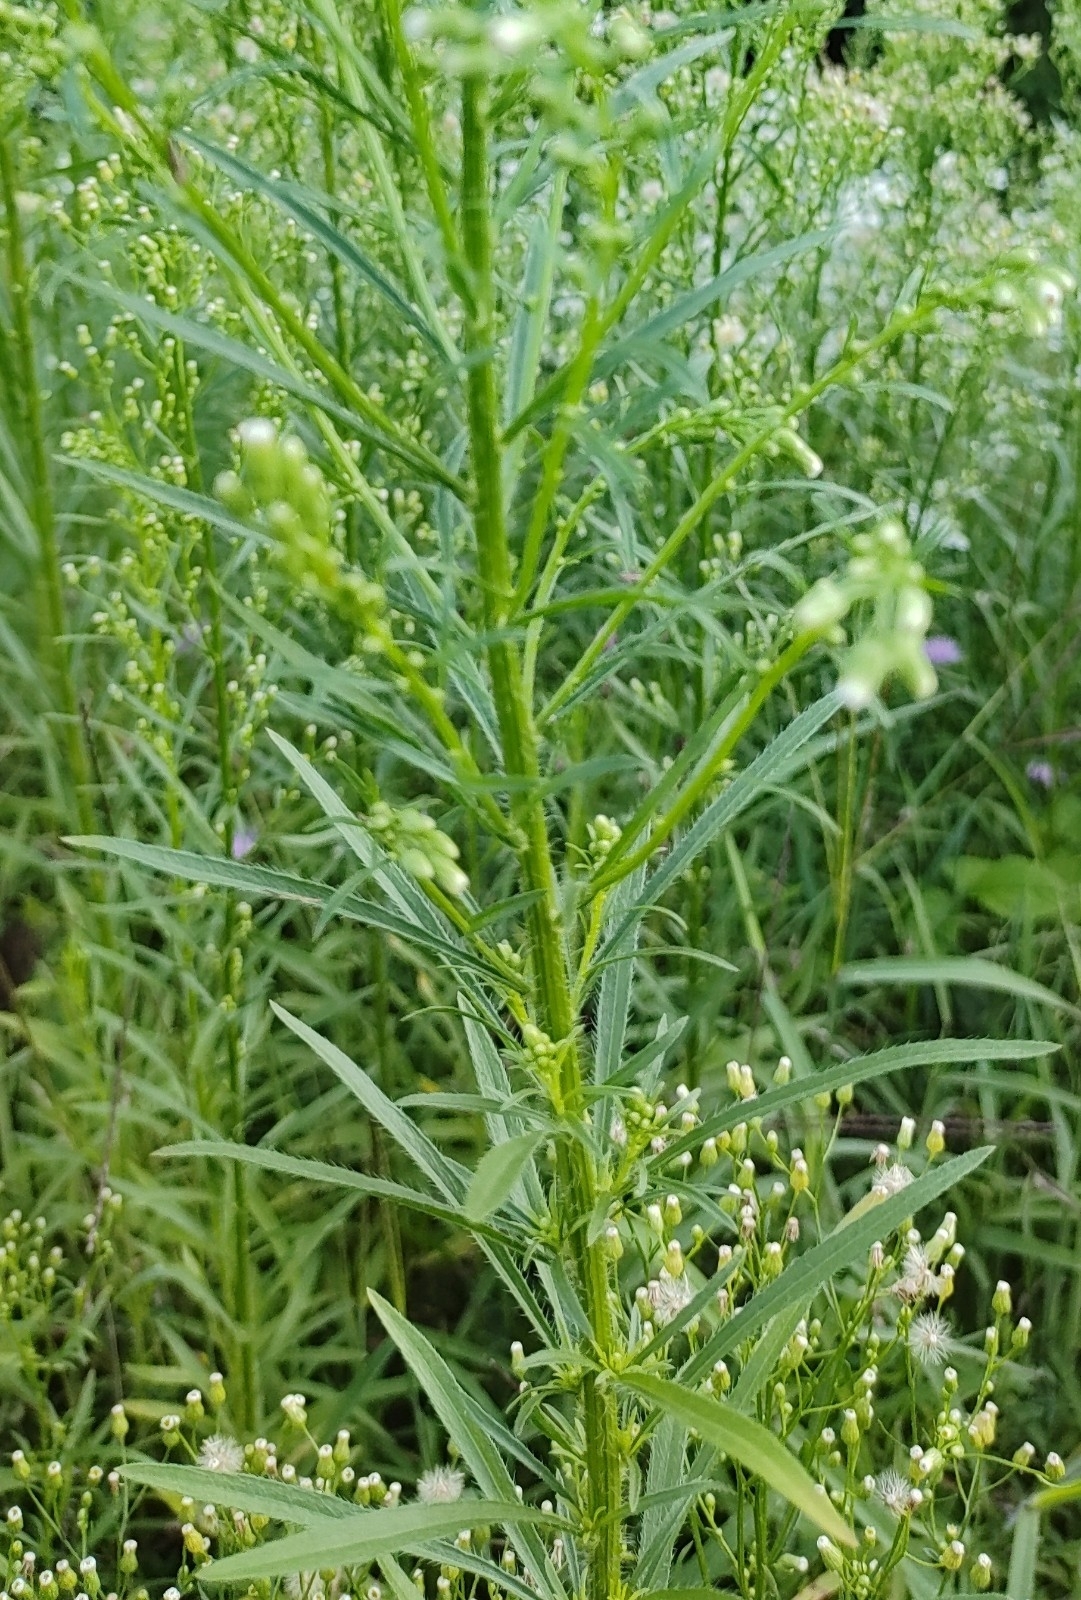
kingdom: Plantae
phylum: Tracheophyta
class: Magnoliopsida
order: Asterales
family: Asteraceae
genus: Erigeron
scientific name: Erigeron canadensis
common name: Canadian fleabane
